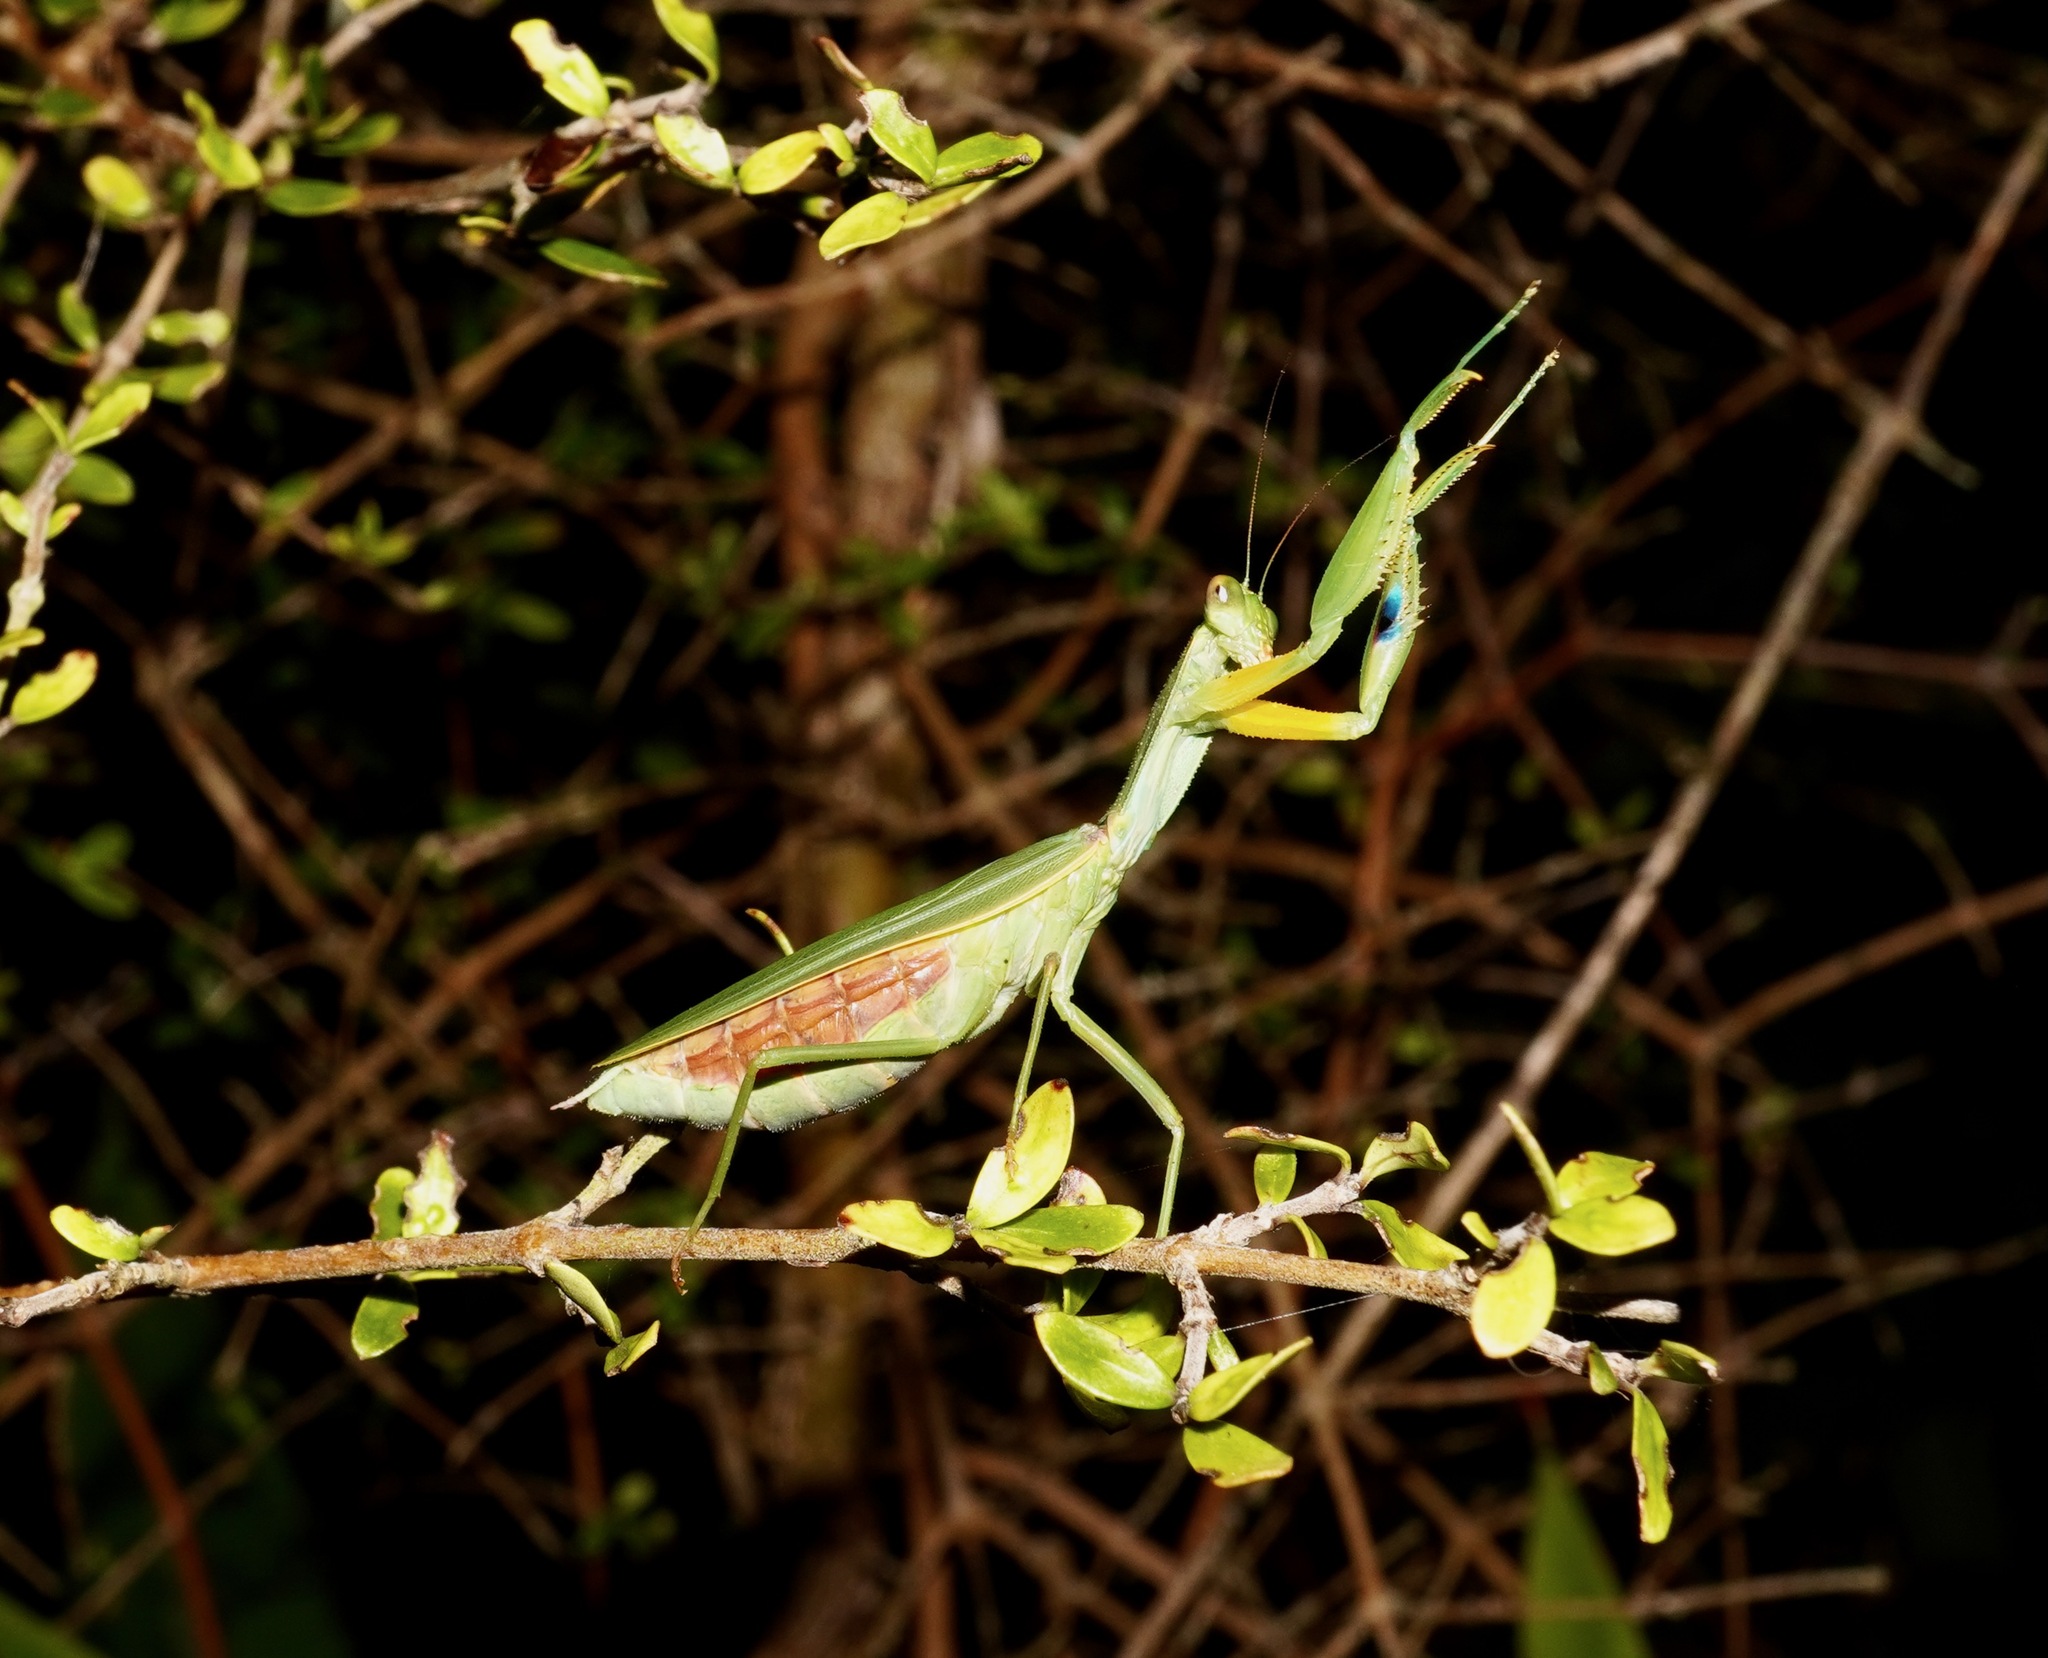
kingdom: Animalia
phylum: Arthropoda
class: Insecta
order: Mantodea
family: Mantidae
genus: Orthodera
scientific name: Orthodera novaezealandiae
